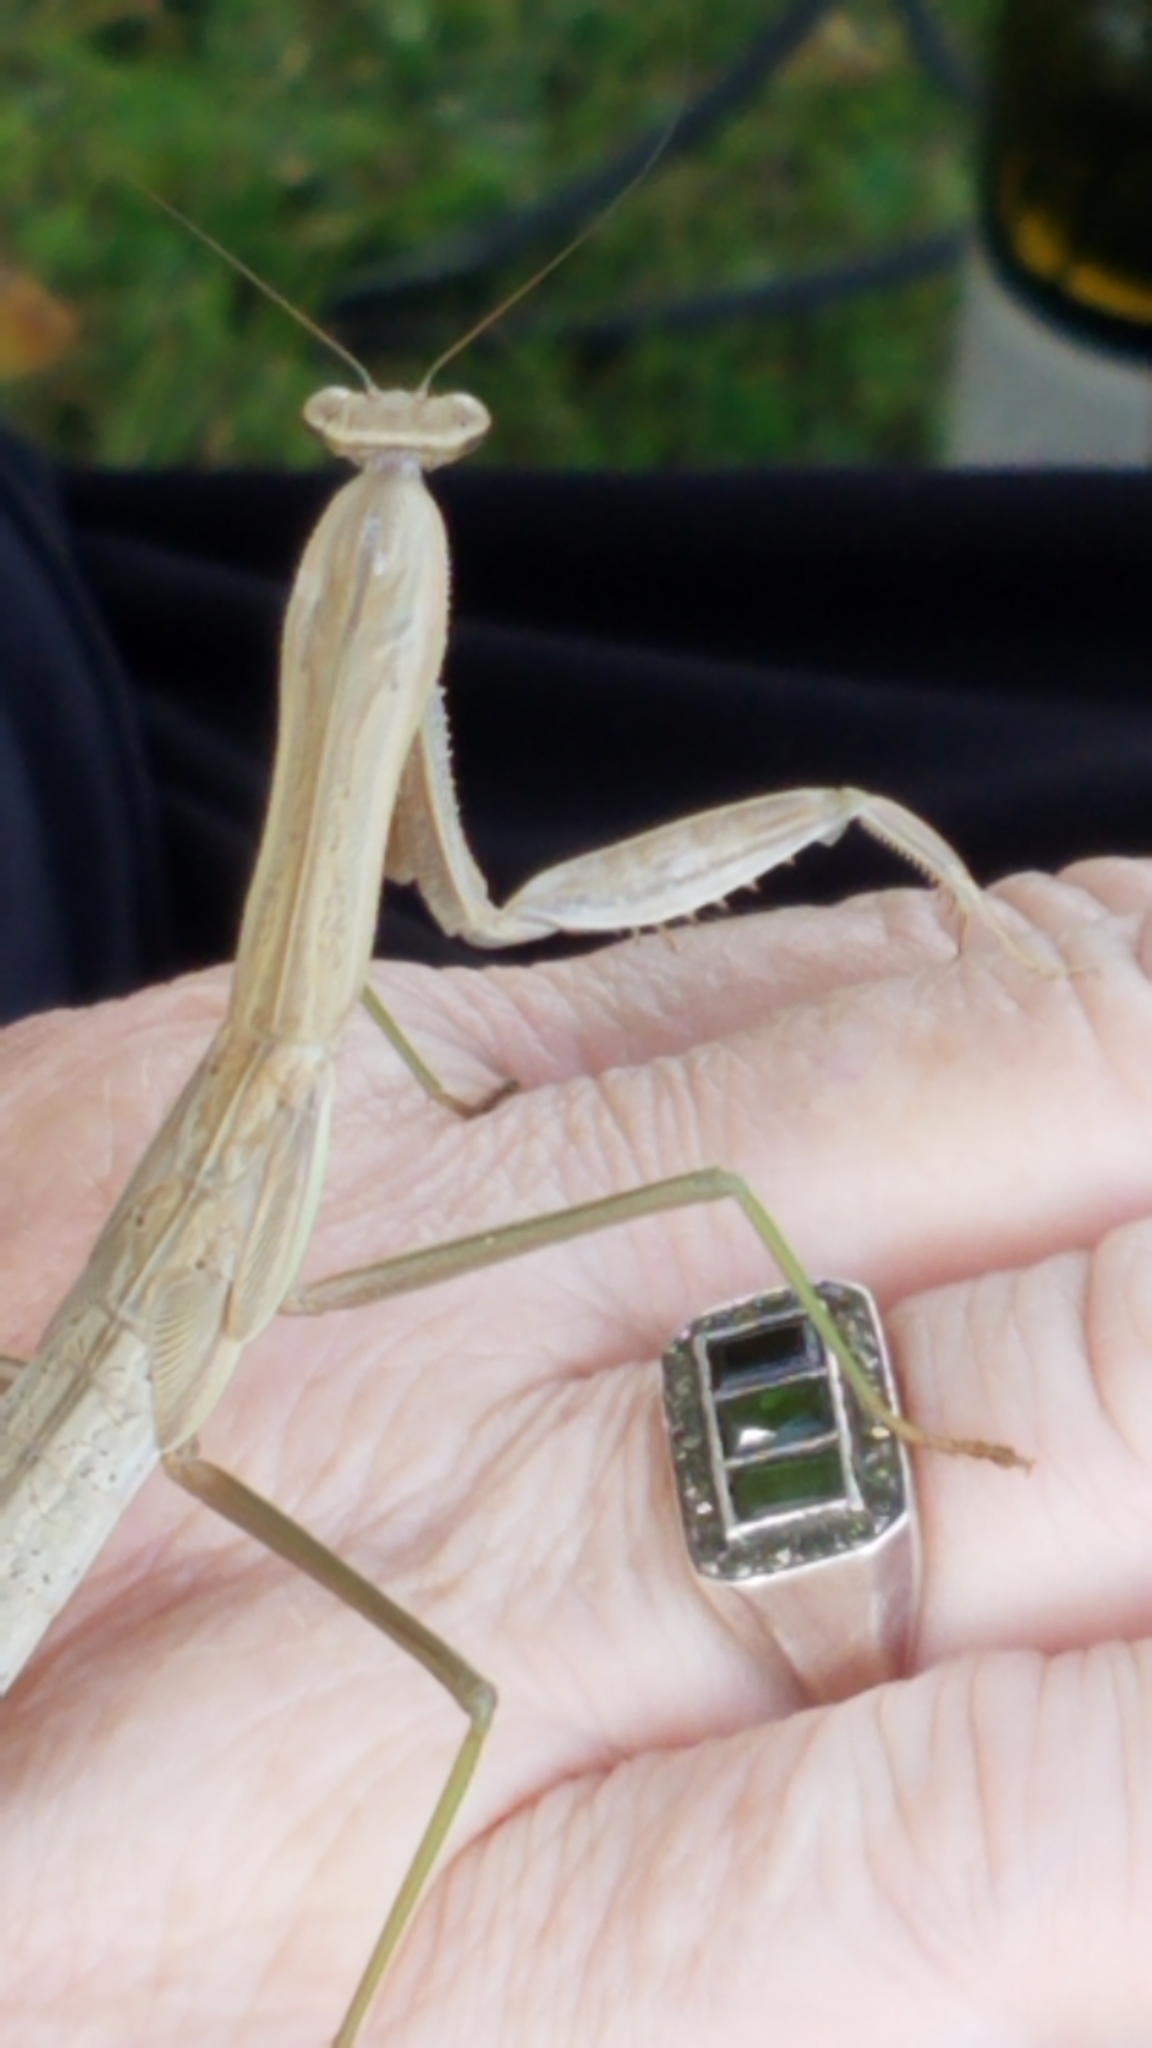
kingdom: Animalia
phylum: Arthropoda
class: Insecta
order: Mantodea
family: Mantidae
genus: Tenodera
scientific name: Tenodera sinensis
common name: Chinese mantis
